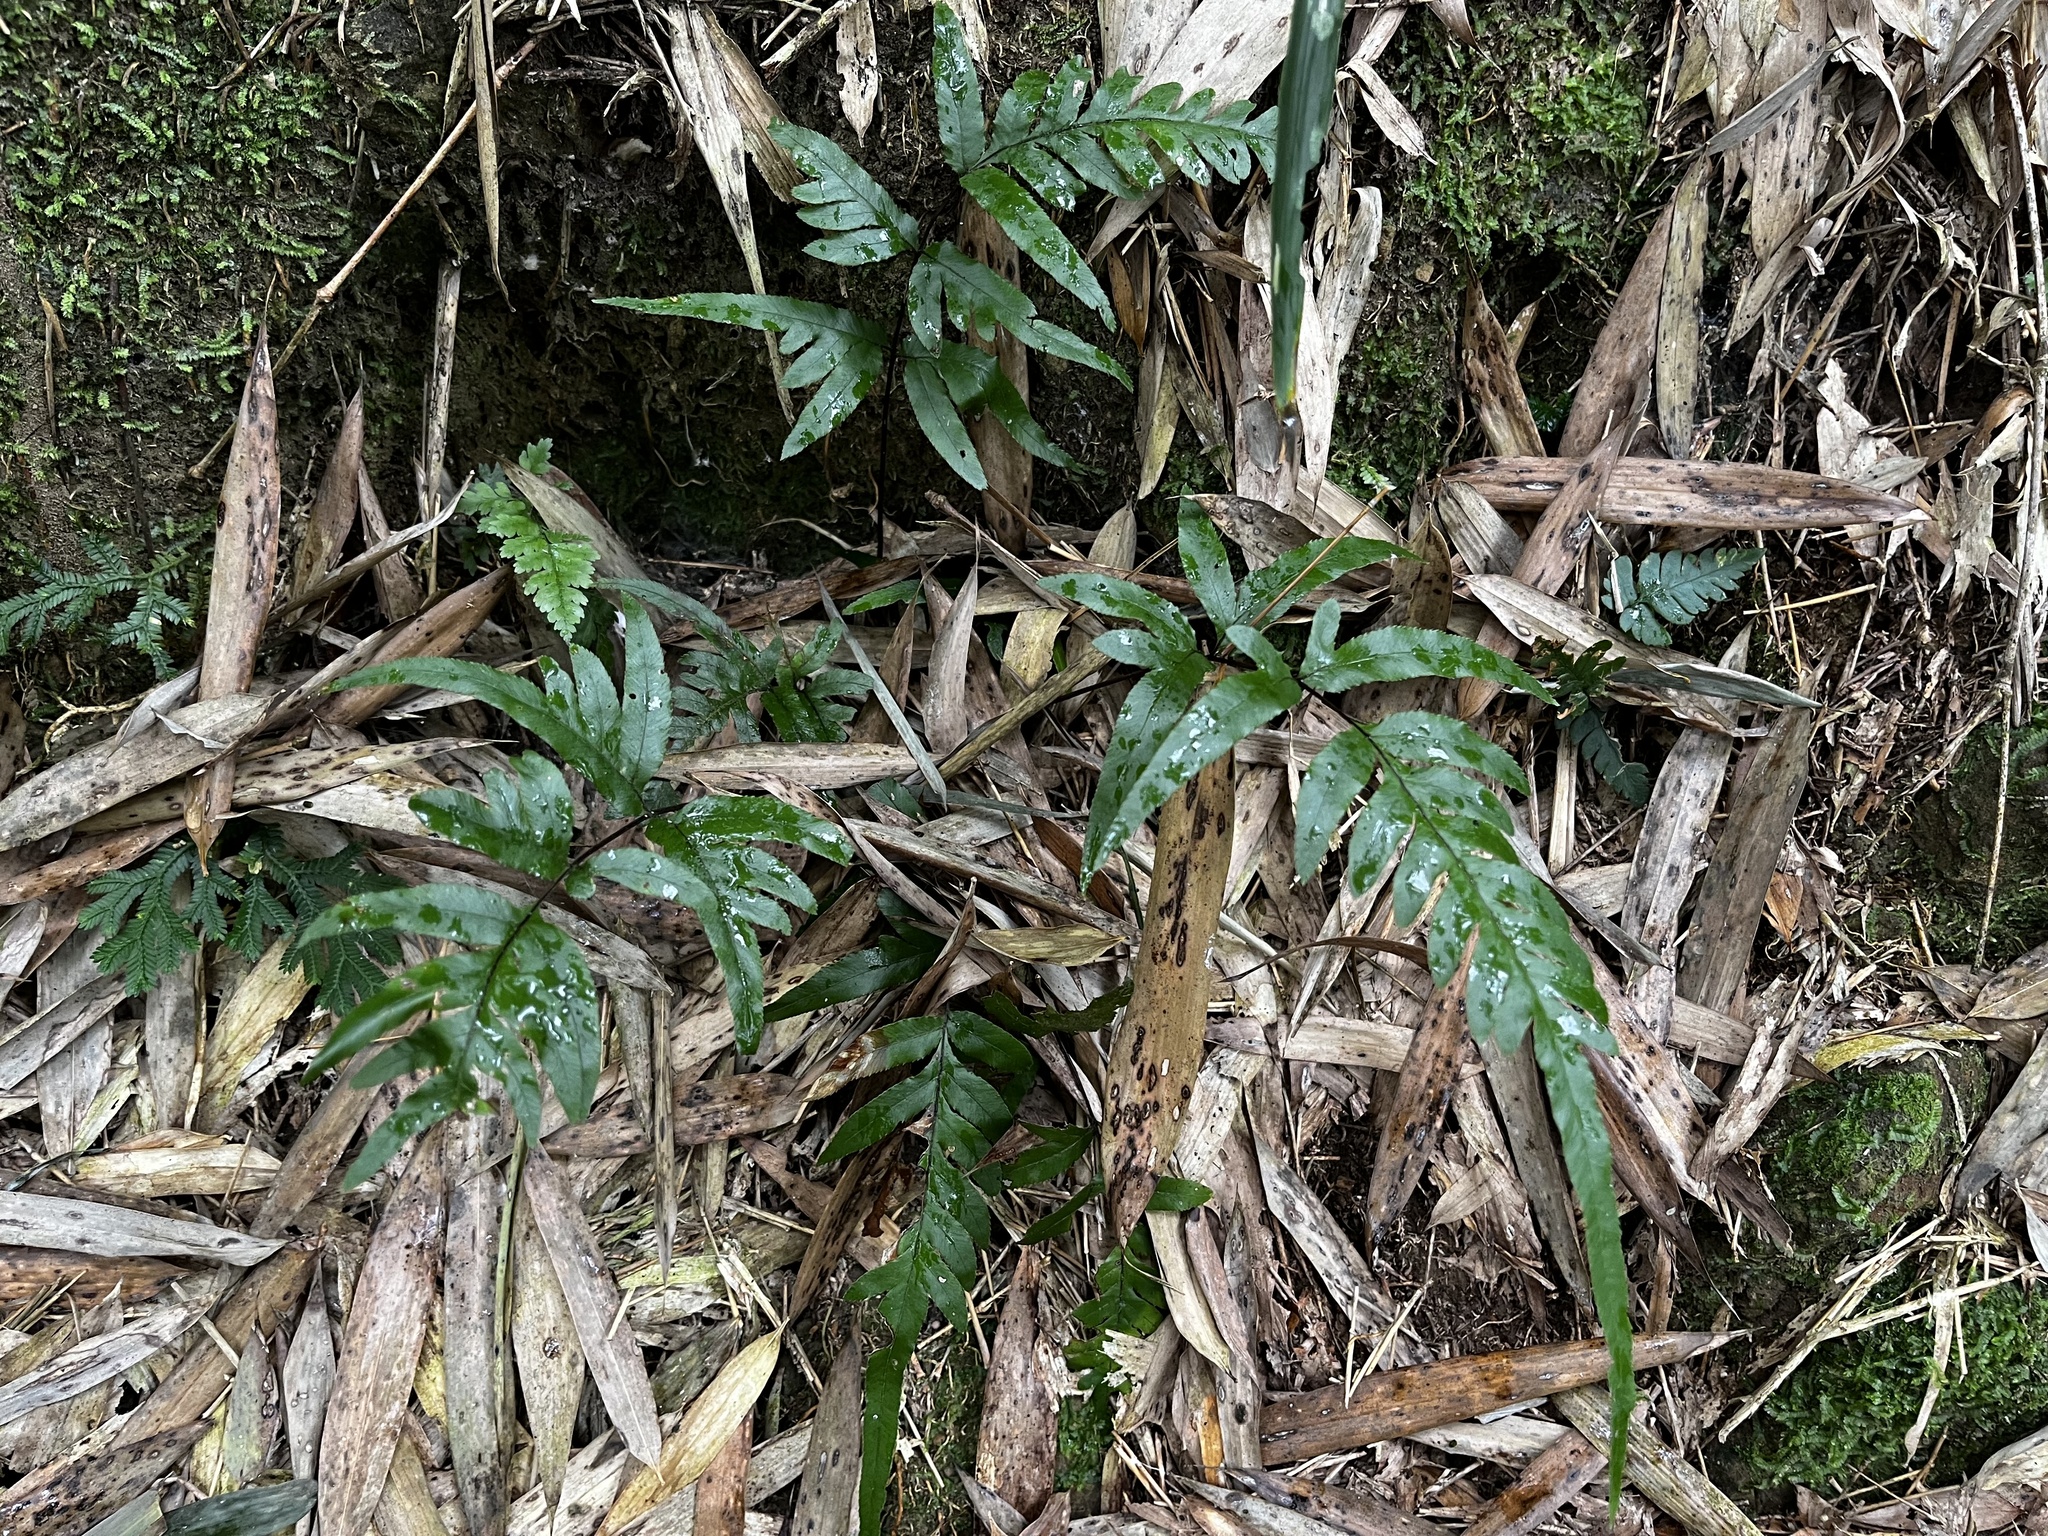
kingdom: Plantae
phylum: Tracheophyta
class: Polypodiopsida
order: Polypodiales
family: Pteridaceae
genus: Pteris
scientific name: Pteris semipinnata
